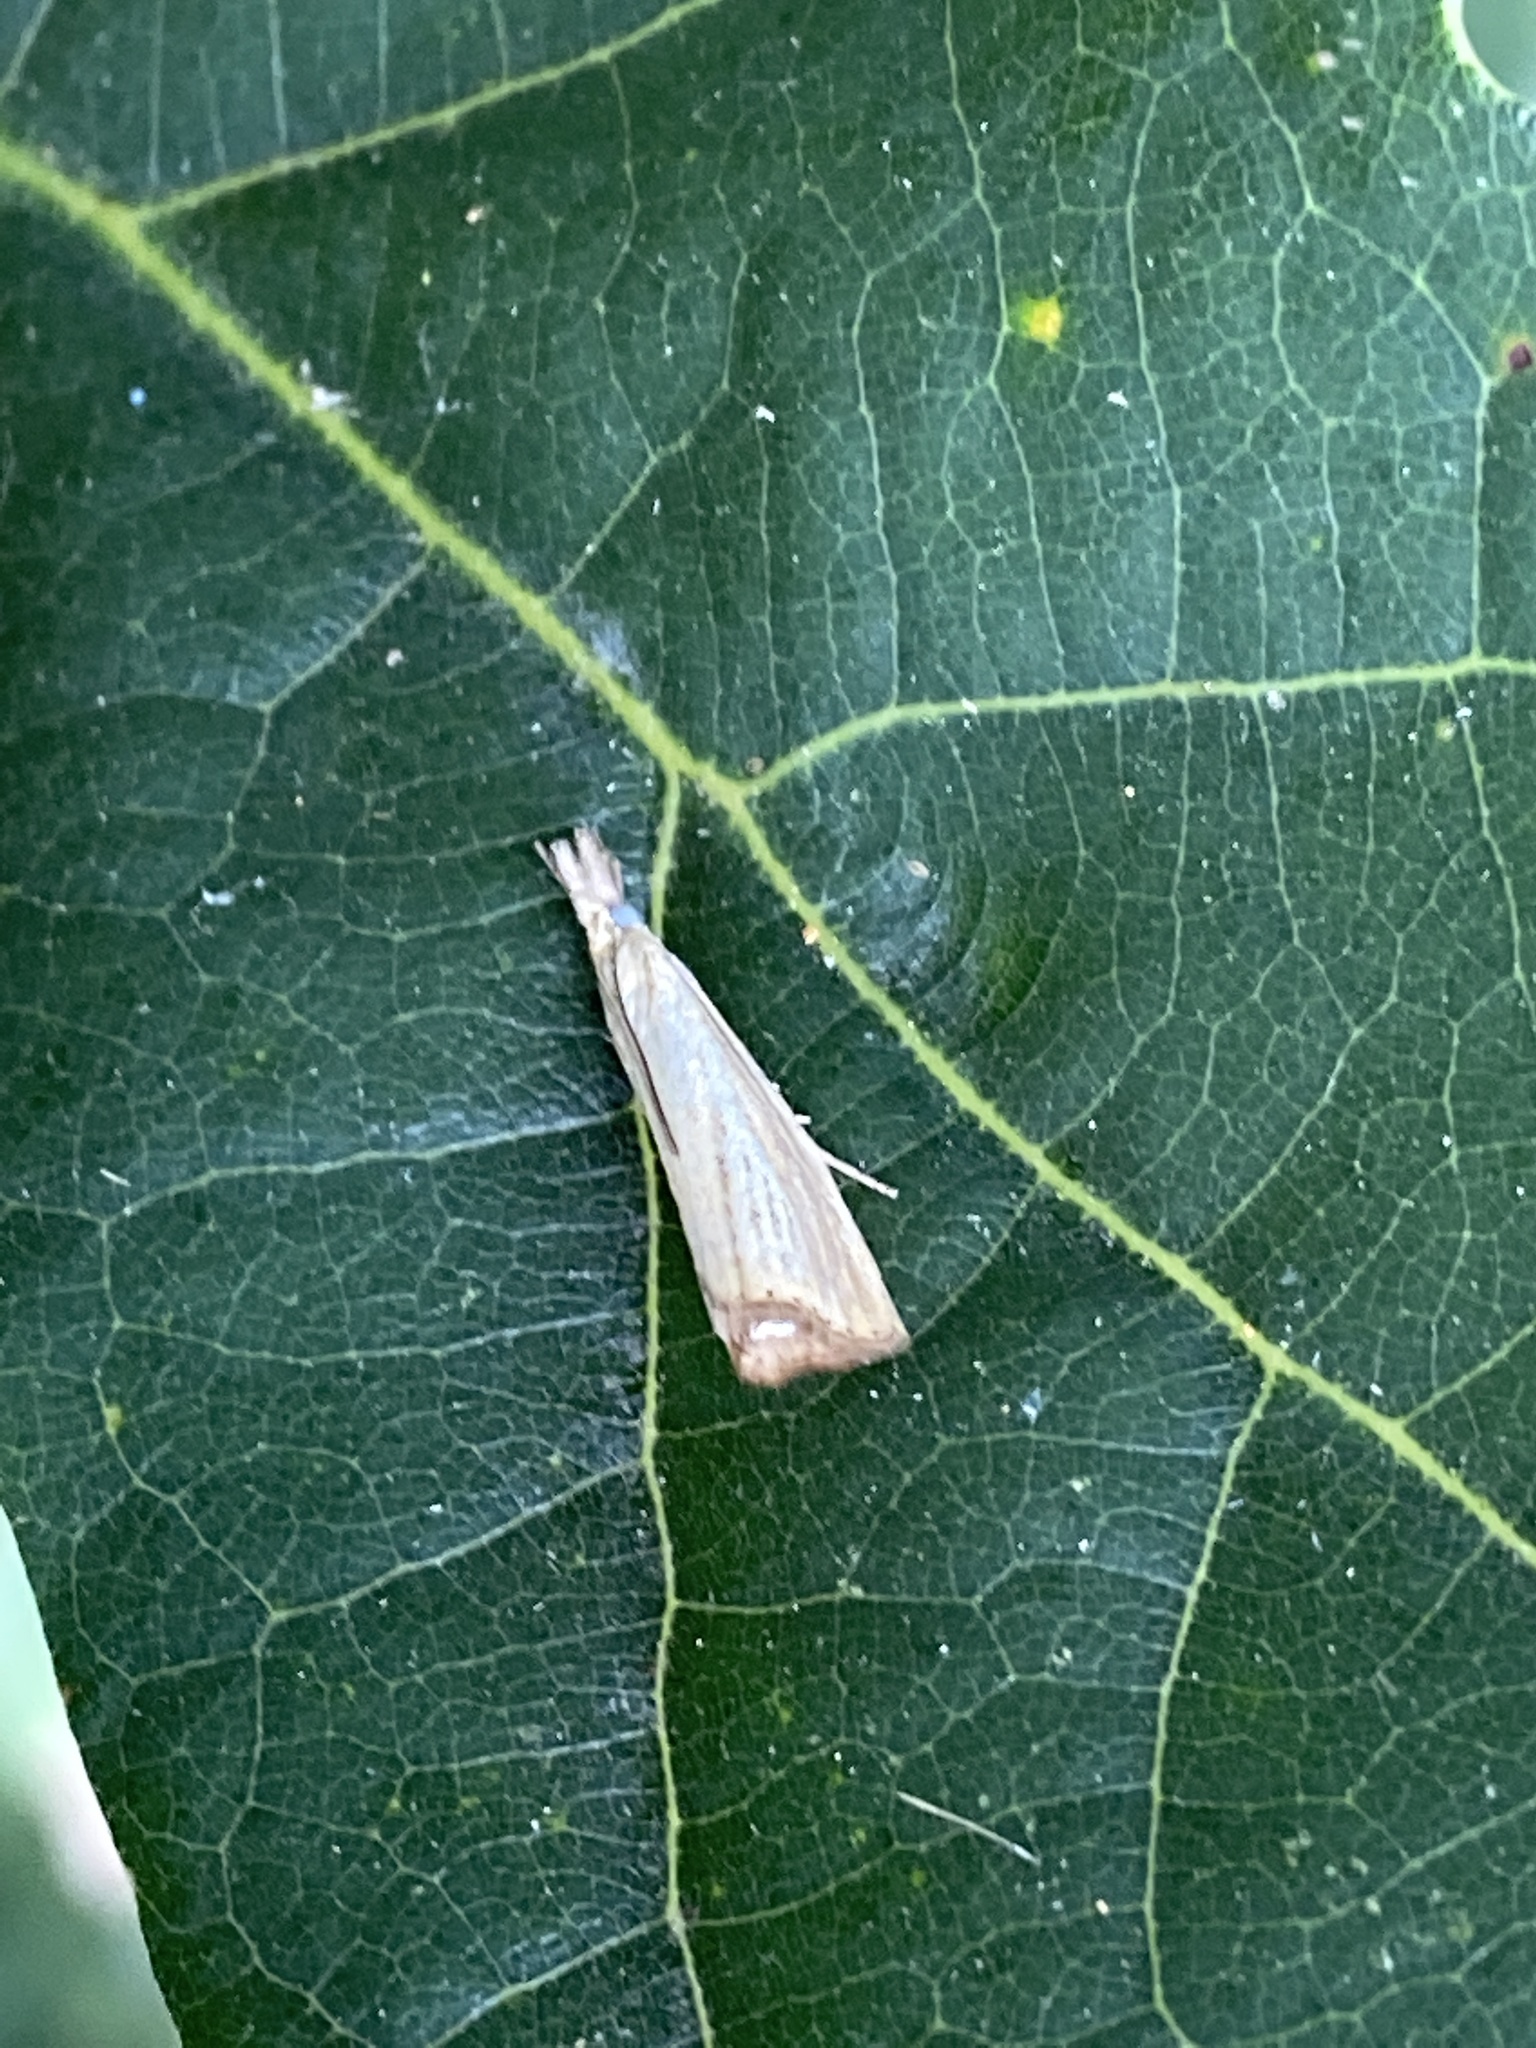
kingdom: Animalia
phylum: Arthropoda
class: Insecta
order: Lepidoptera
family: Crambidae
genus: Agriphila
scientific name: Agriphila straminella
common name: Straw grass-veneer
